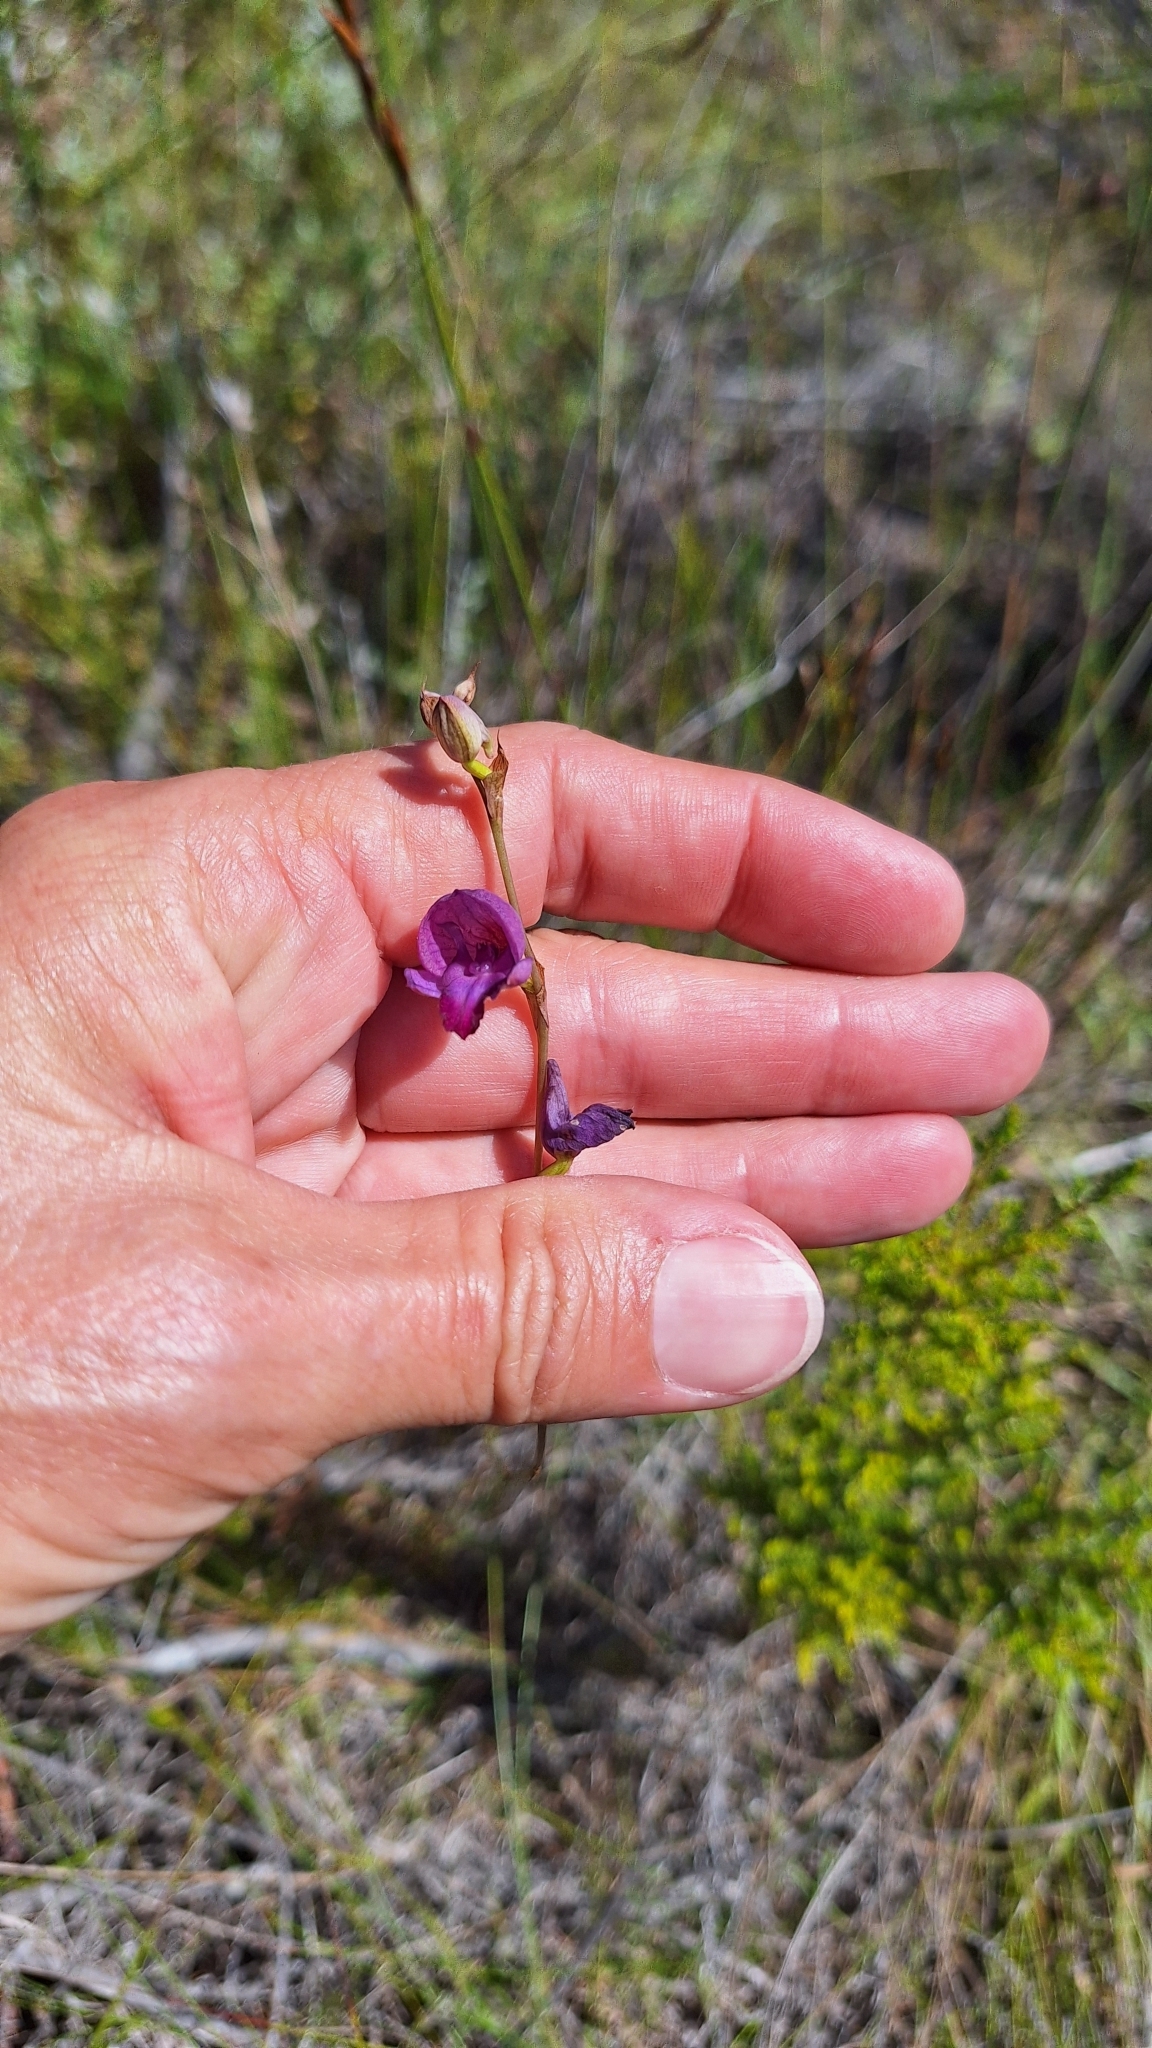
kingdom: Plantae
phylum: Tracheophyta
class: Liliopsida
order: Asparagales
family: Orchidaceae
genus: Disa
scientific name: Disa hians
